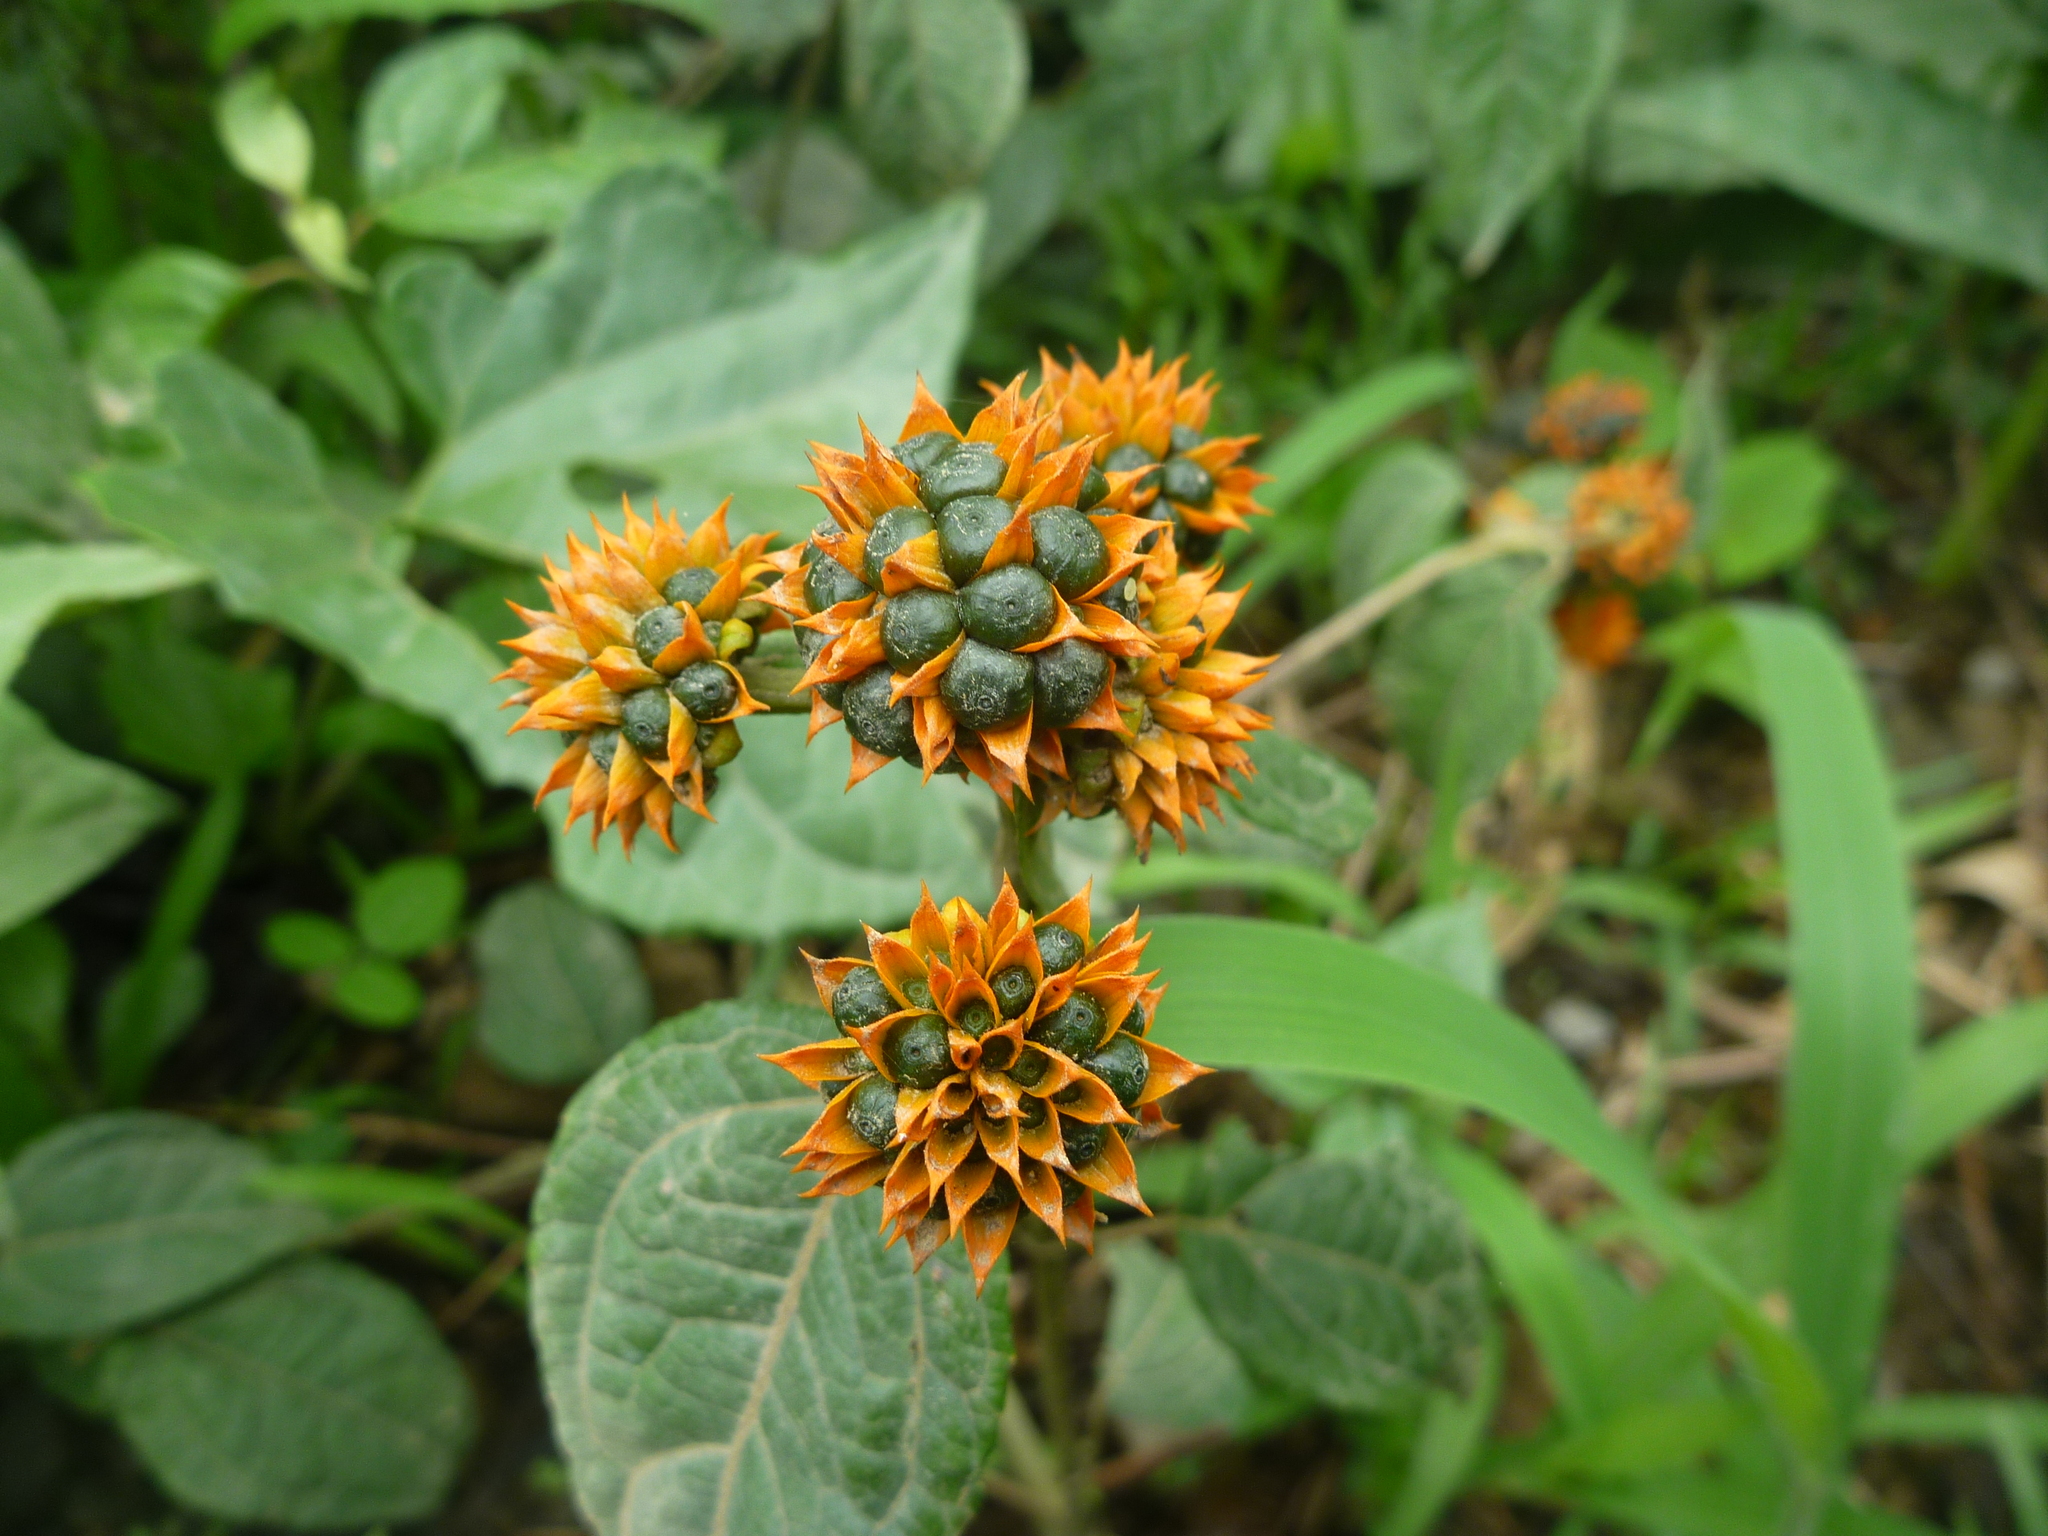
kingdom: Plantae
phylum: Tracheophyta
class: Magnoliopsida
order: Asterales
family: Asteraceae
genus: Tilesia
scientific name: Tilesia baccata
